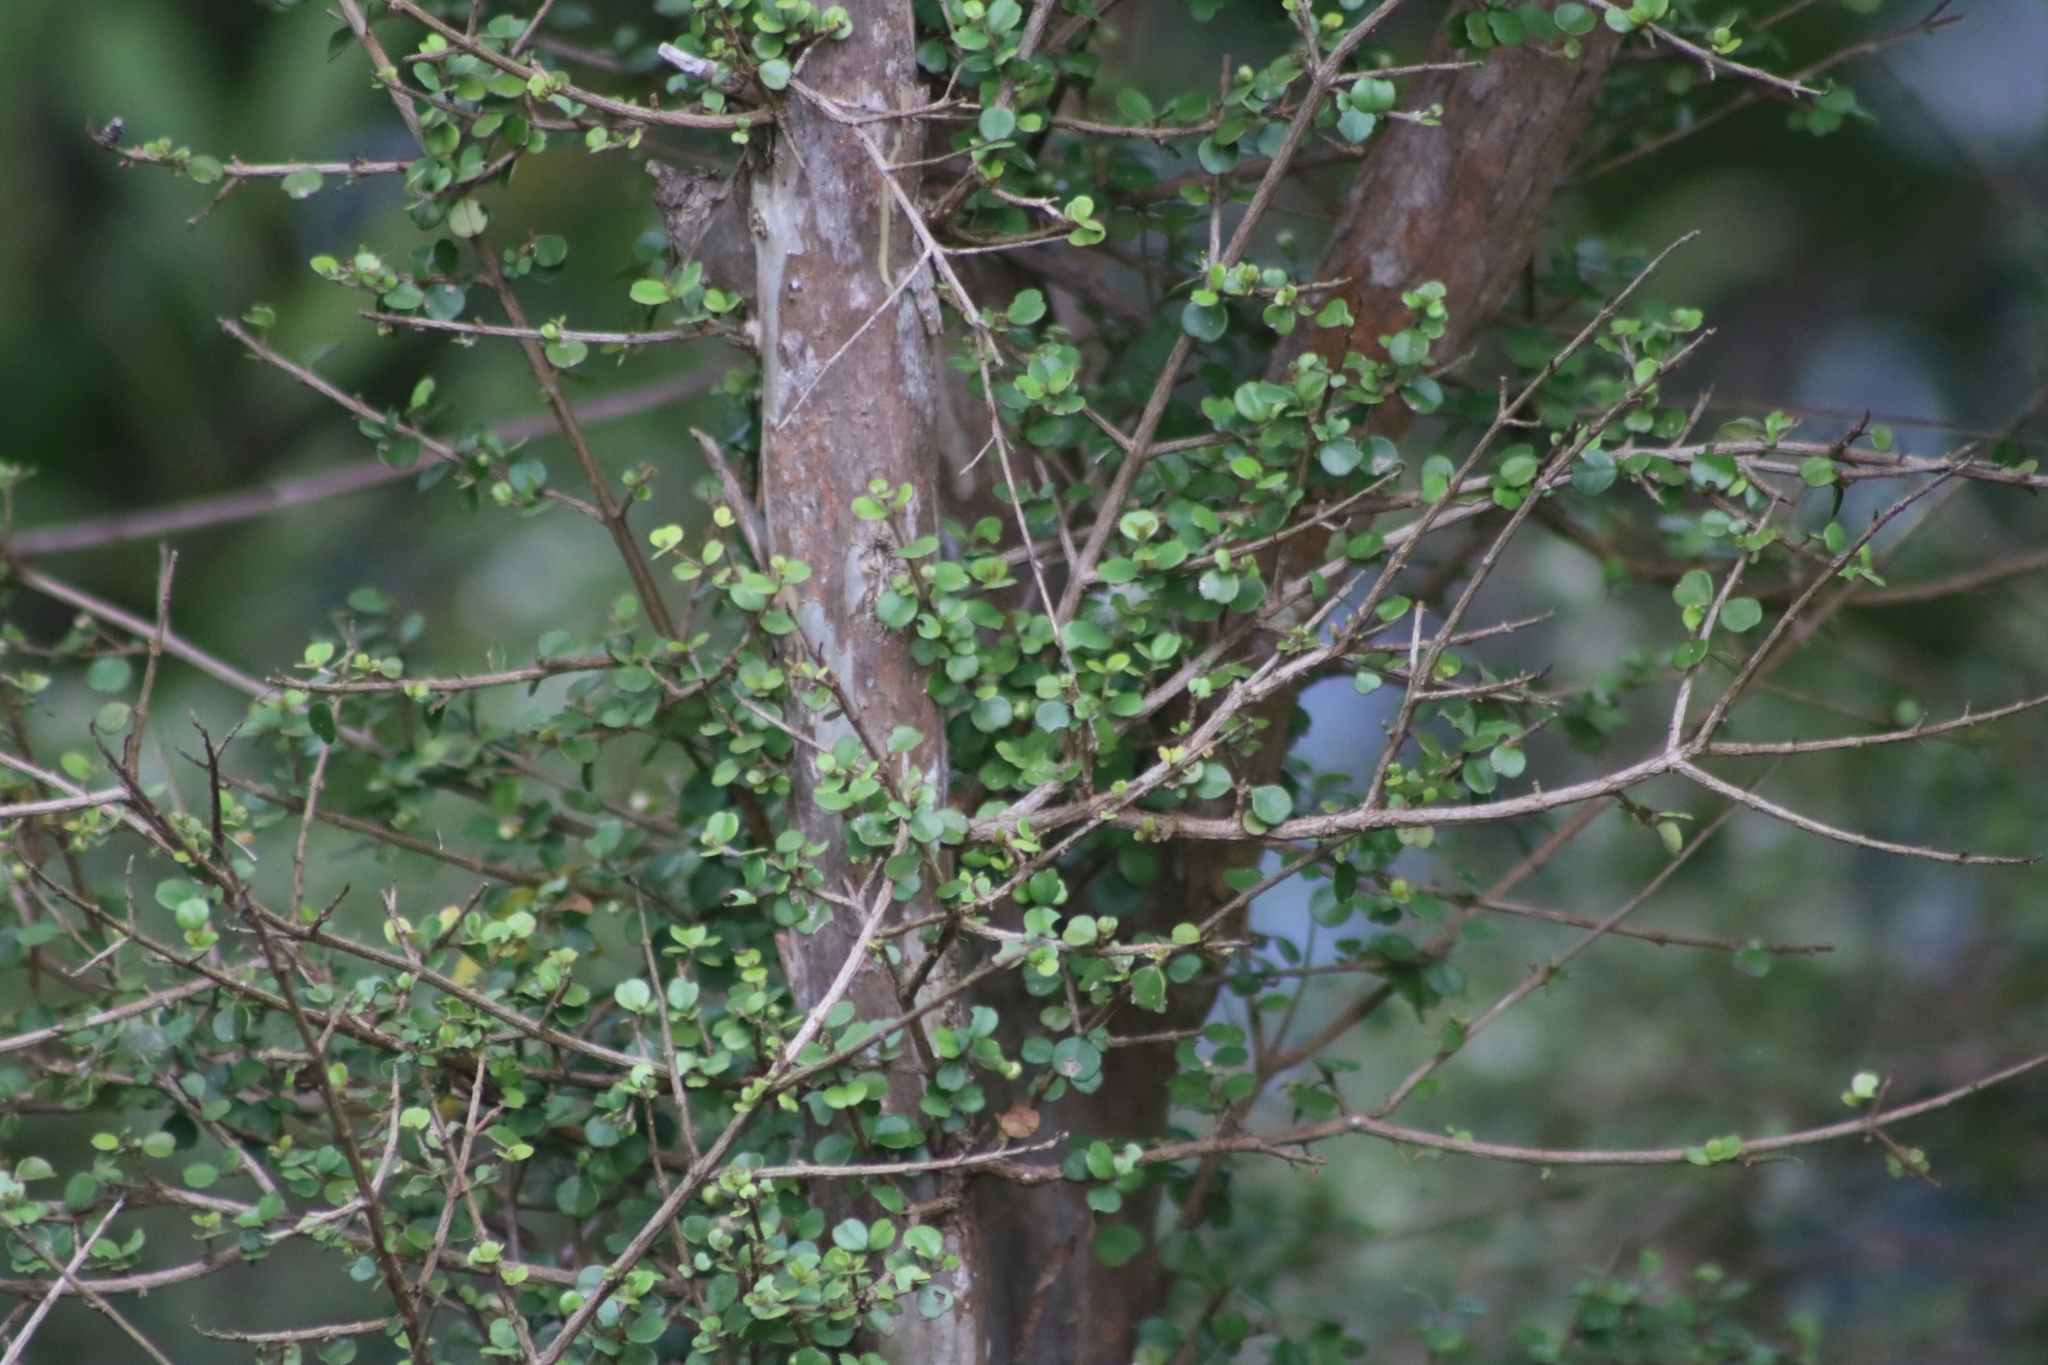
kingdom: Plantae
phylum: Tracheophyta
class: Magnoliopsida
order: Myrtales
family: Myrtaceae
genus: Lophomyrtus
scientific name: Lophomyrtus obcordata
